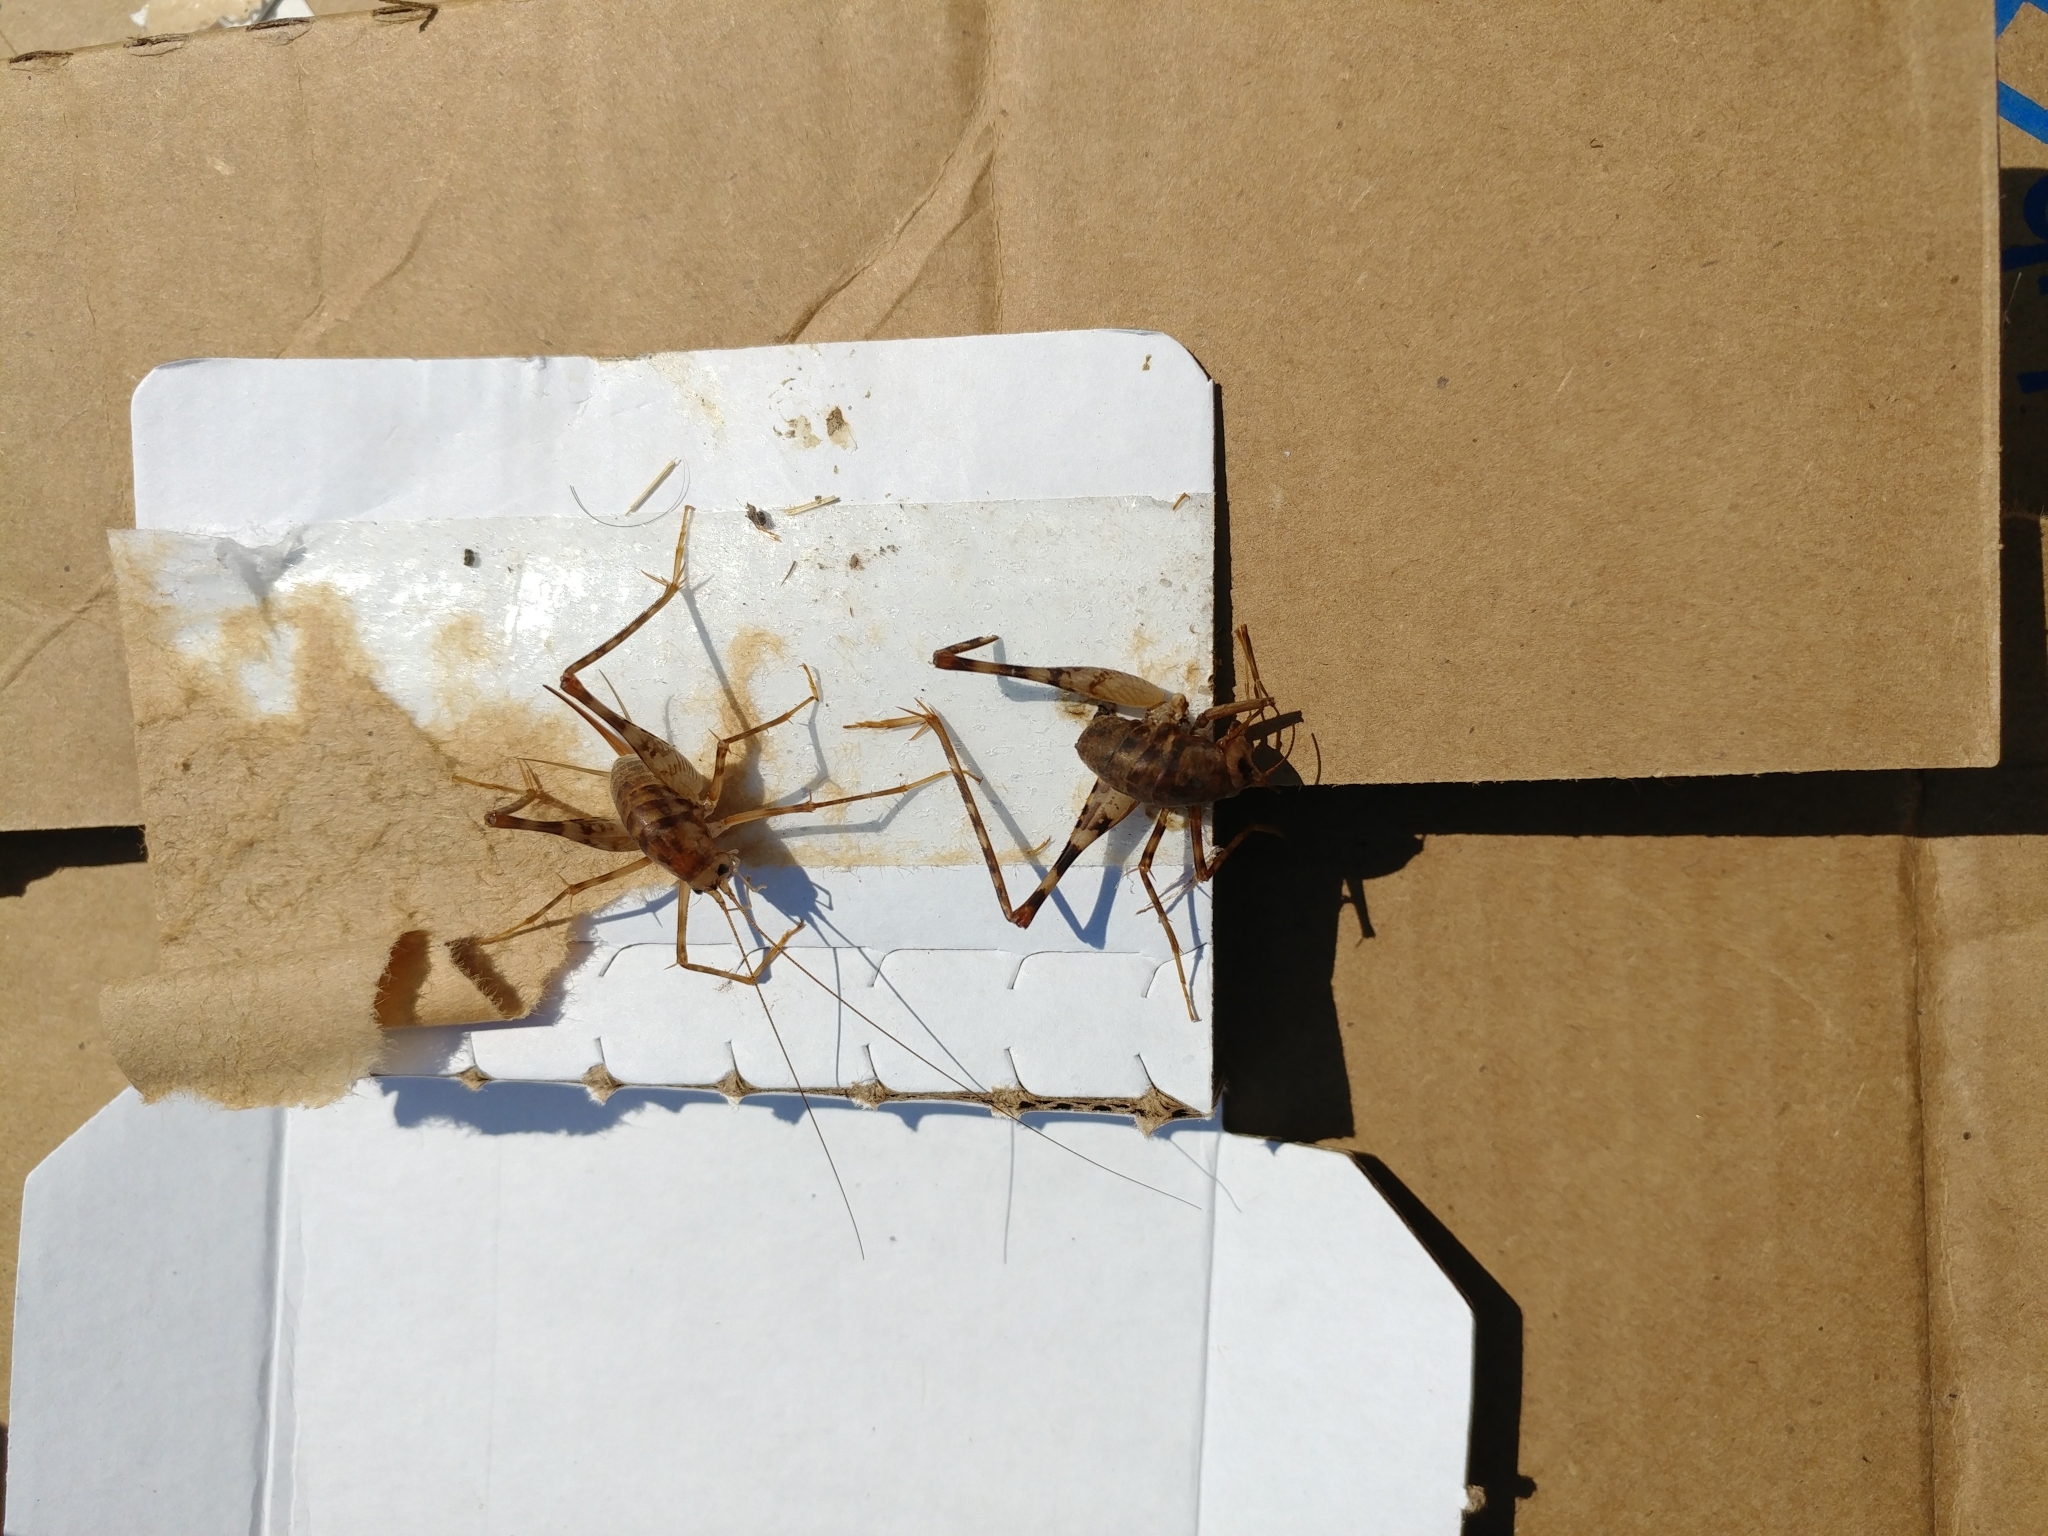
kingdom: Animalia
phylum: Arthropoda
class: Insecta
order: Orthoptera
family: Rhaphidophoridae
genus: Tachycines
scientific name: Tachycines asynamorus
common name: Greenhouse camel cricket
